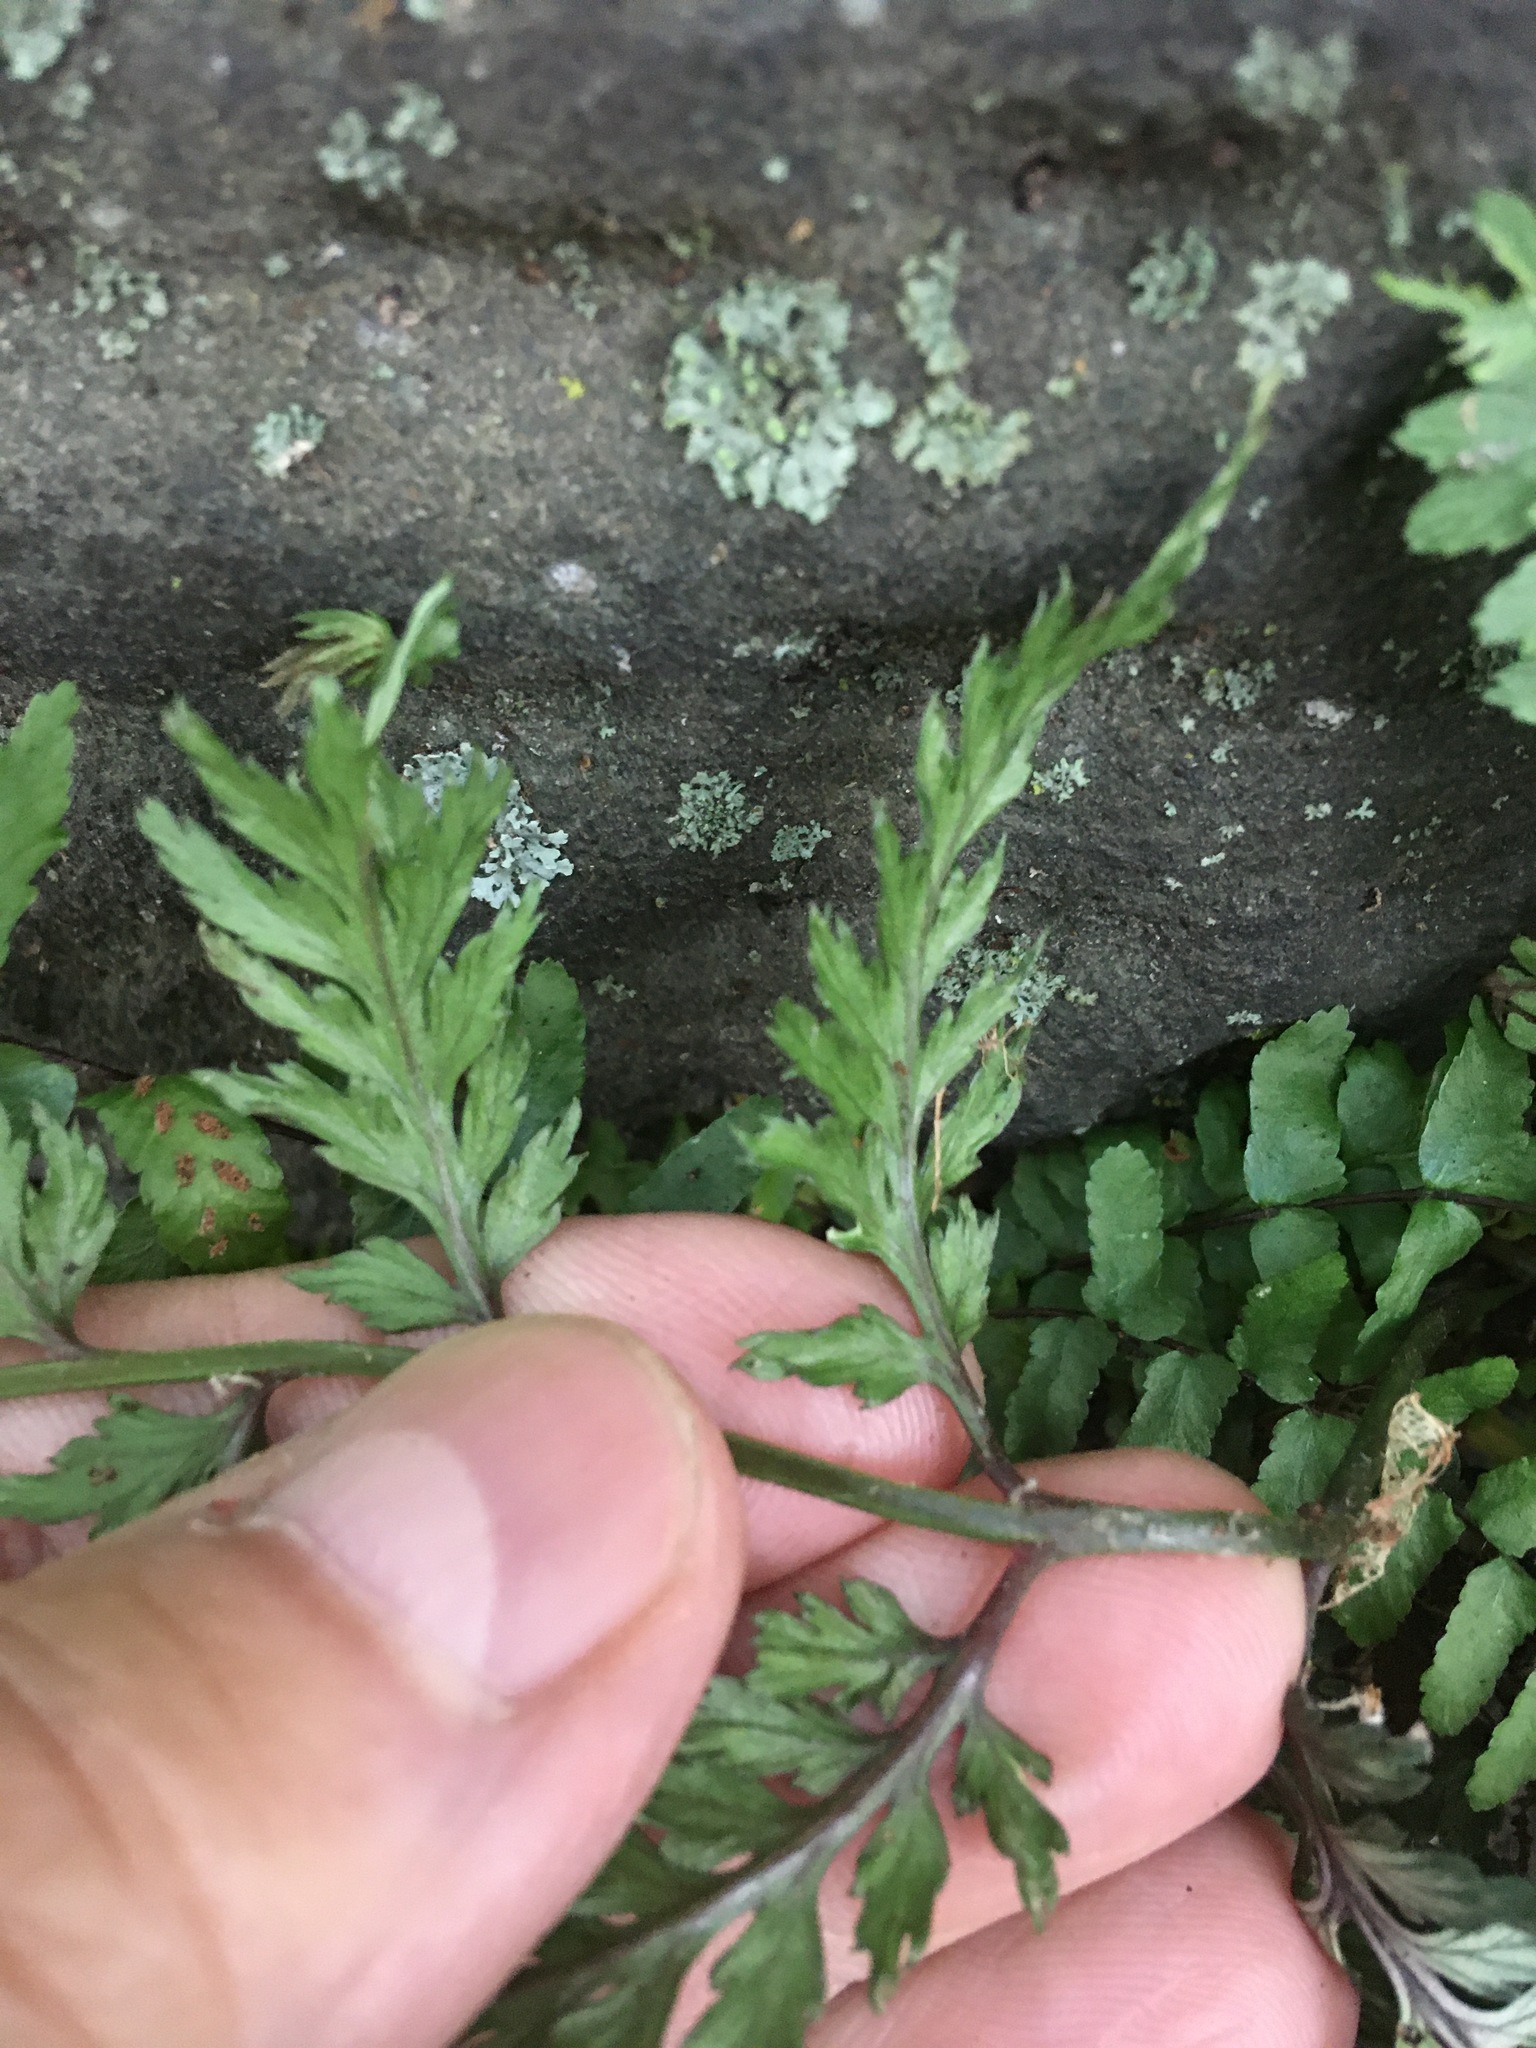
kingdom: Plantae
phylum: Tracheophyta
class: Polypodiopsida
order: Polypodiales
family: Athyriaceae
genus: Anisocampium
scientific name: Anisocampium niponicum
